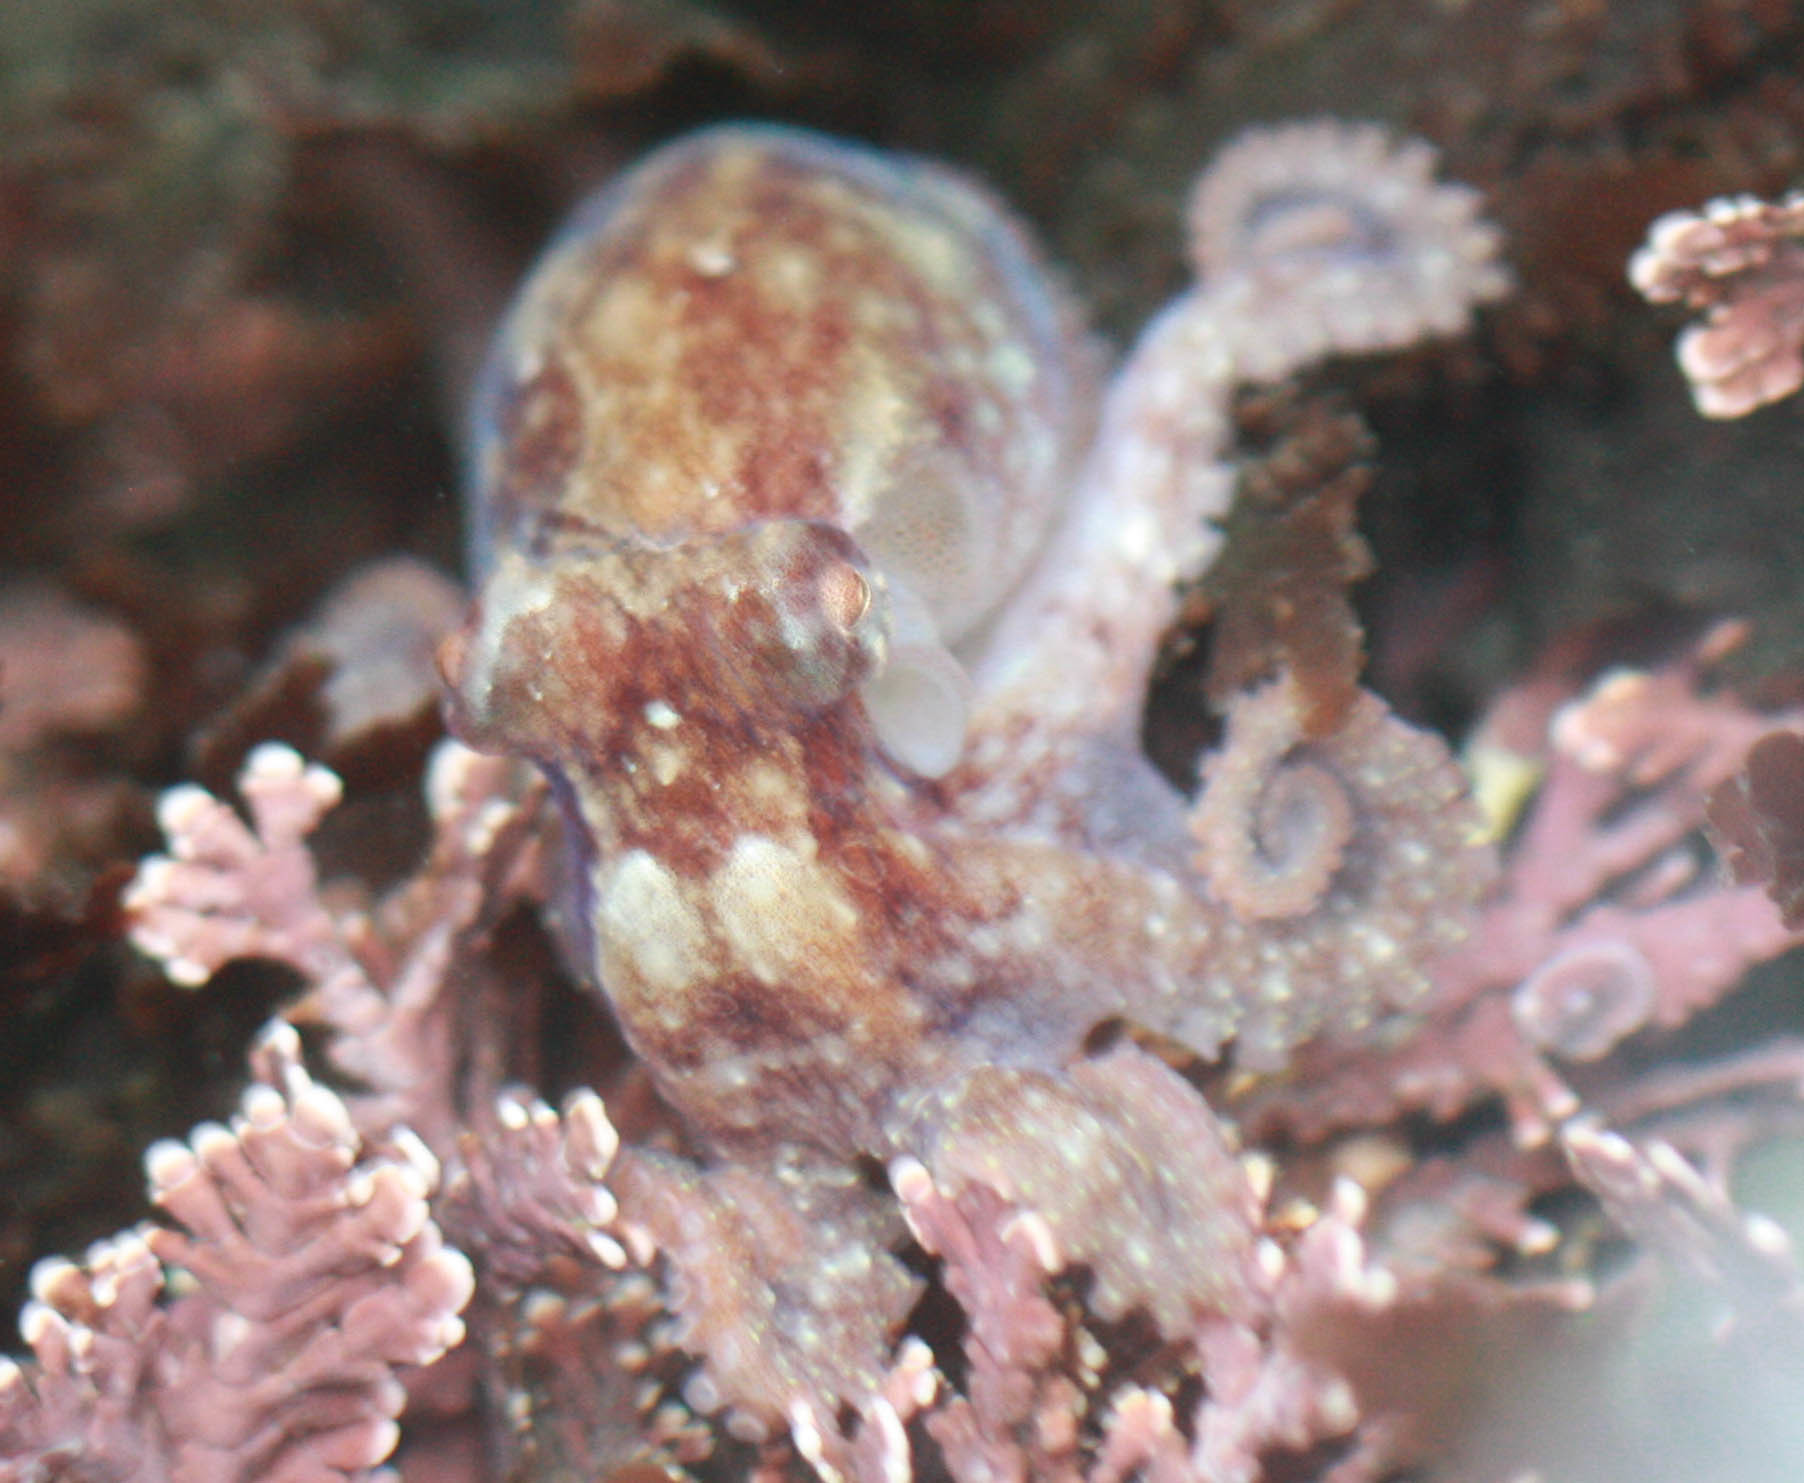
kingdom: Animalia
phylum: Mollusca
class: Cephalopoda
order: Octopoda
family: Octopodidae
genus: Octopus
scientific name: Octopus rubescens
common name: East pacific red octopus
